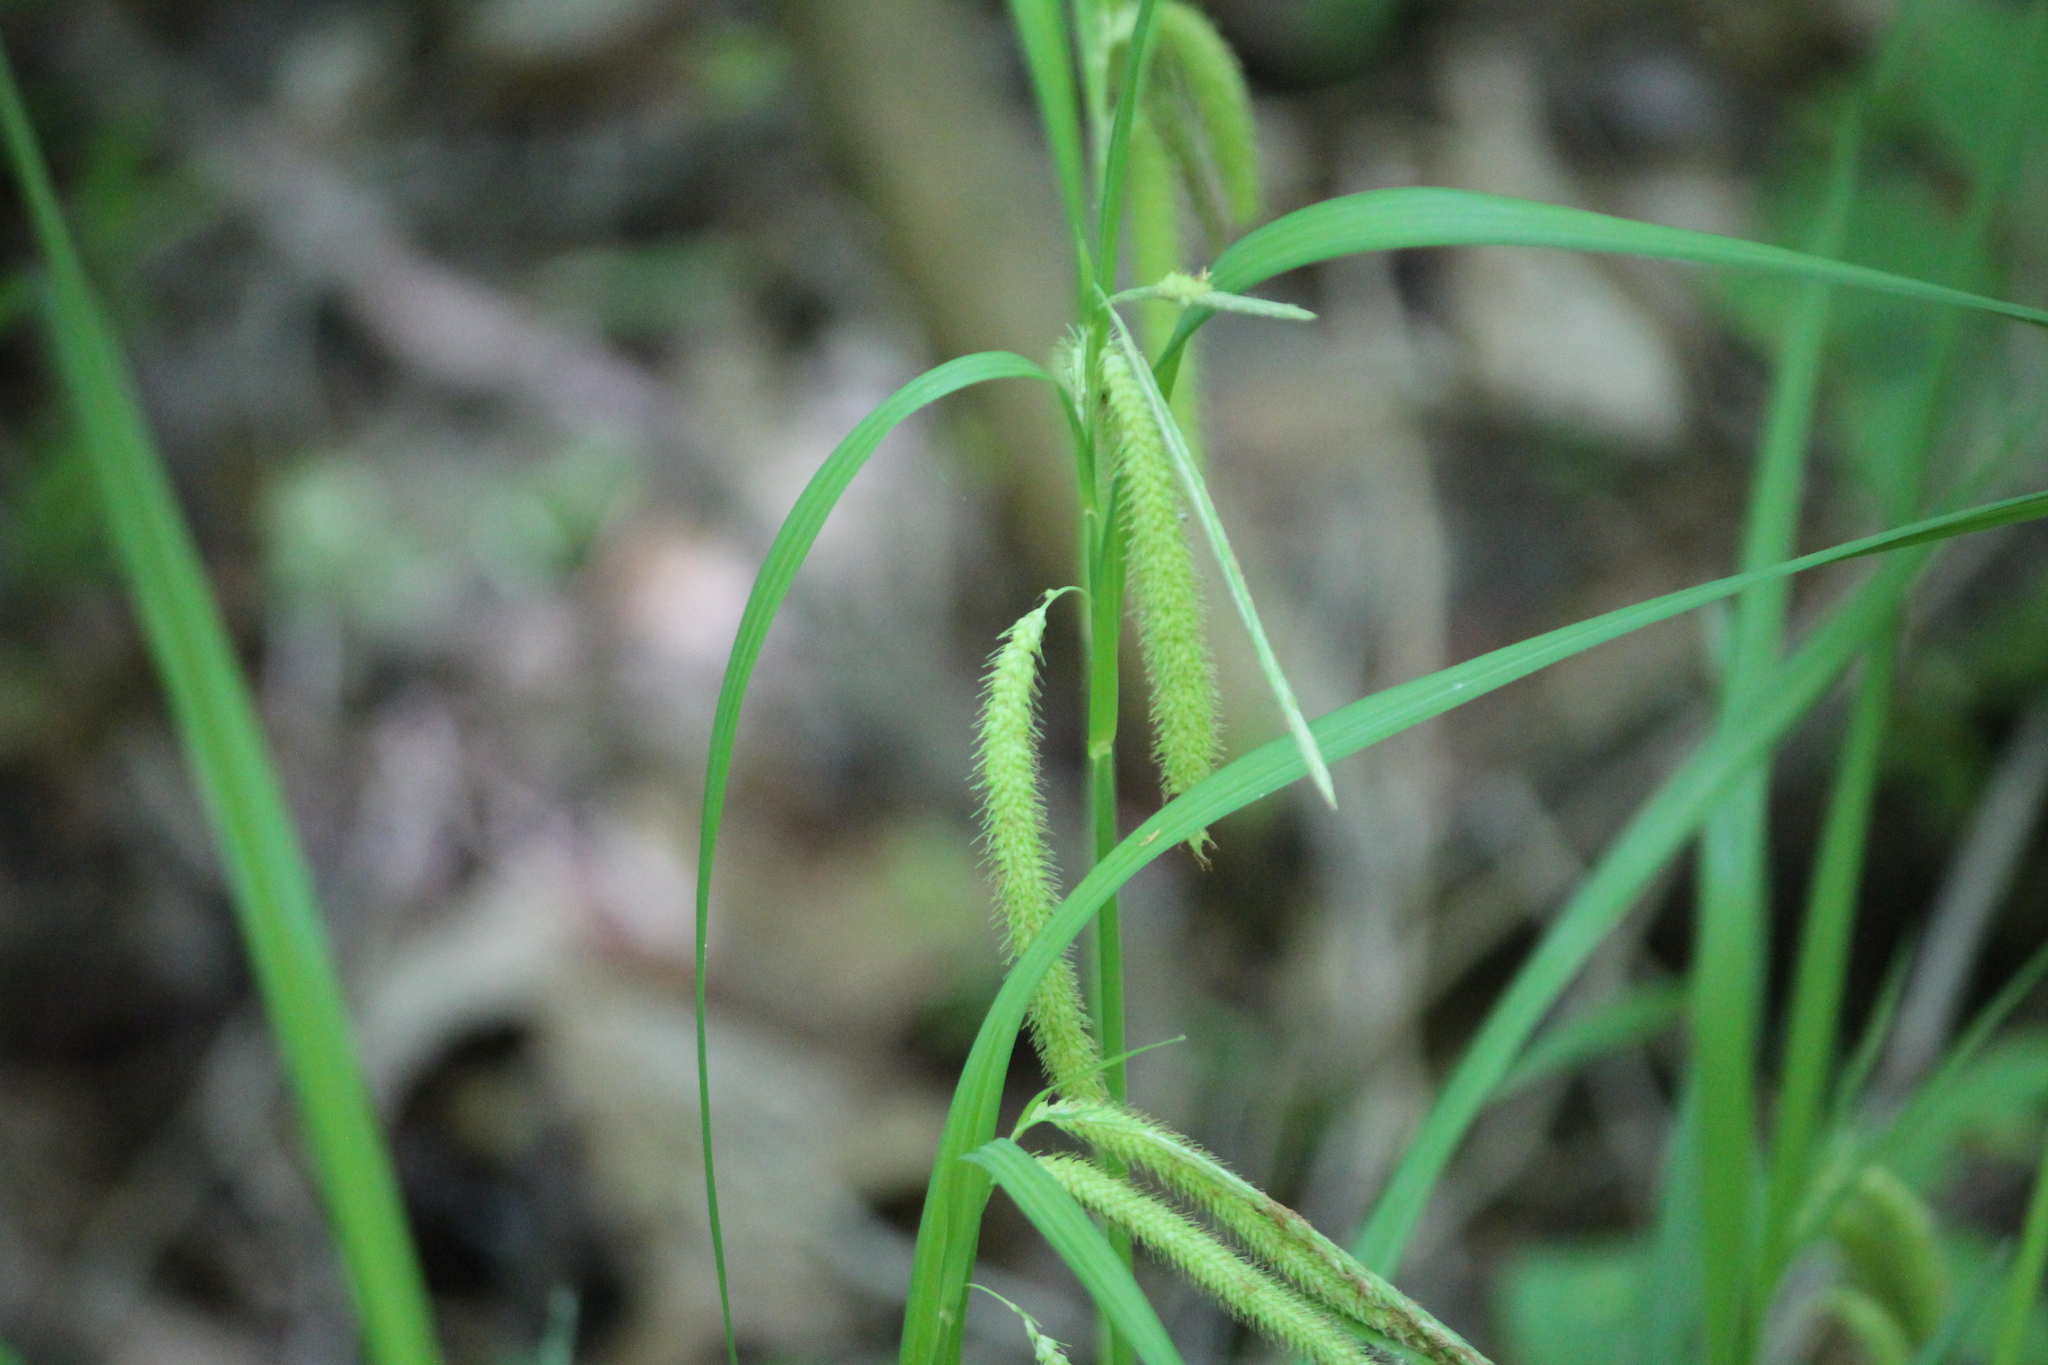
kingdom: Plantae
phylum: Tracheophyta
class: Liliopsida
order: Poales
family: Cyperaceae
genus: Carex
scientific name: Carex crinita
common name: Fringed sedge
